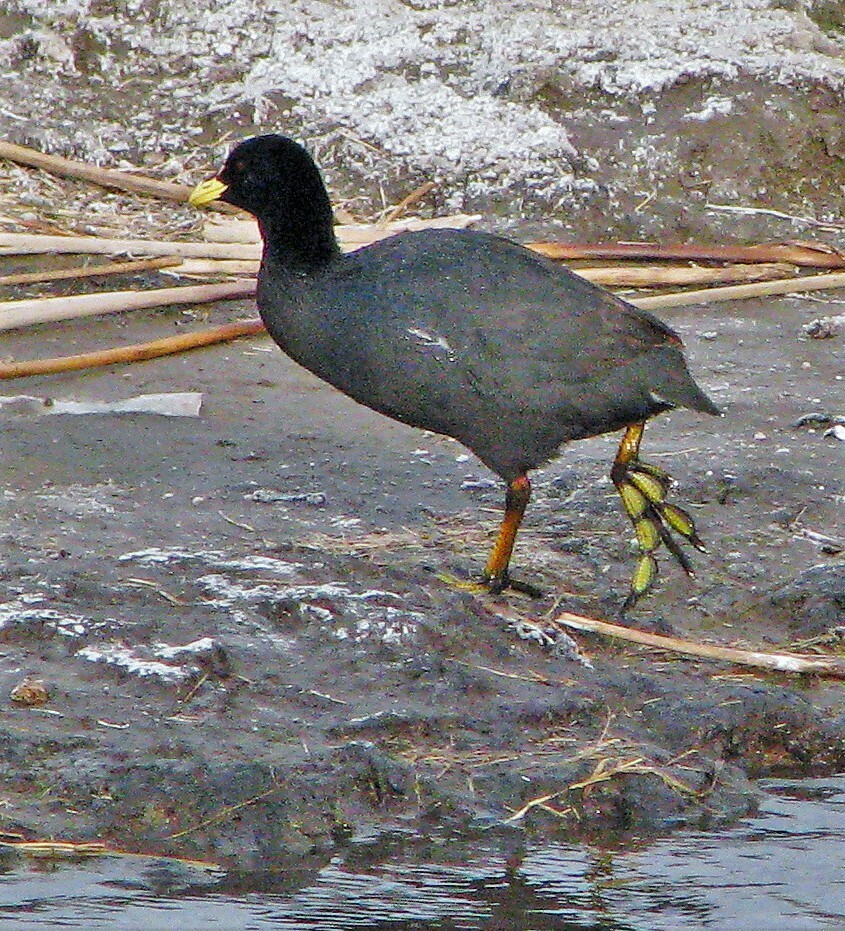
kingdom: Animalia
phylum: Chordata
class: Aves
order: Gruiformes
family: Rallidae
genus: Fulica
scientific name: Fulica armillata
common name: Red-gartered coot
